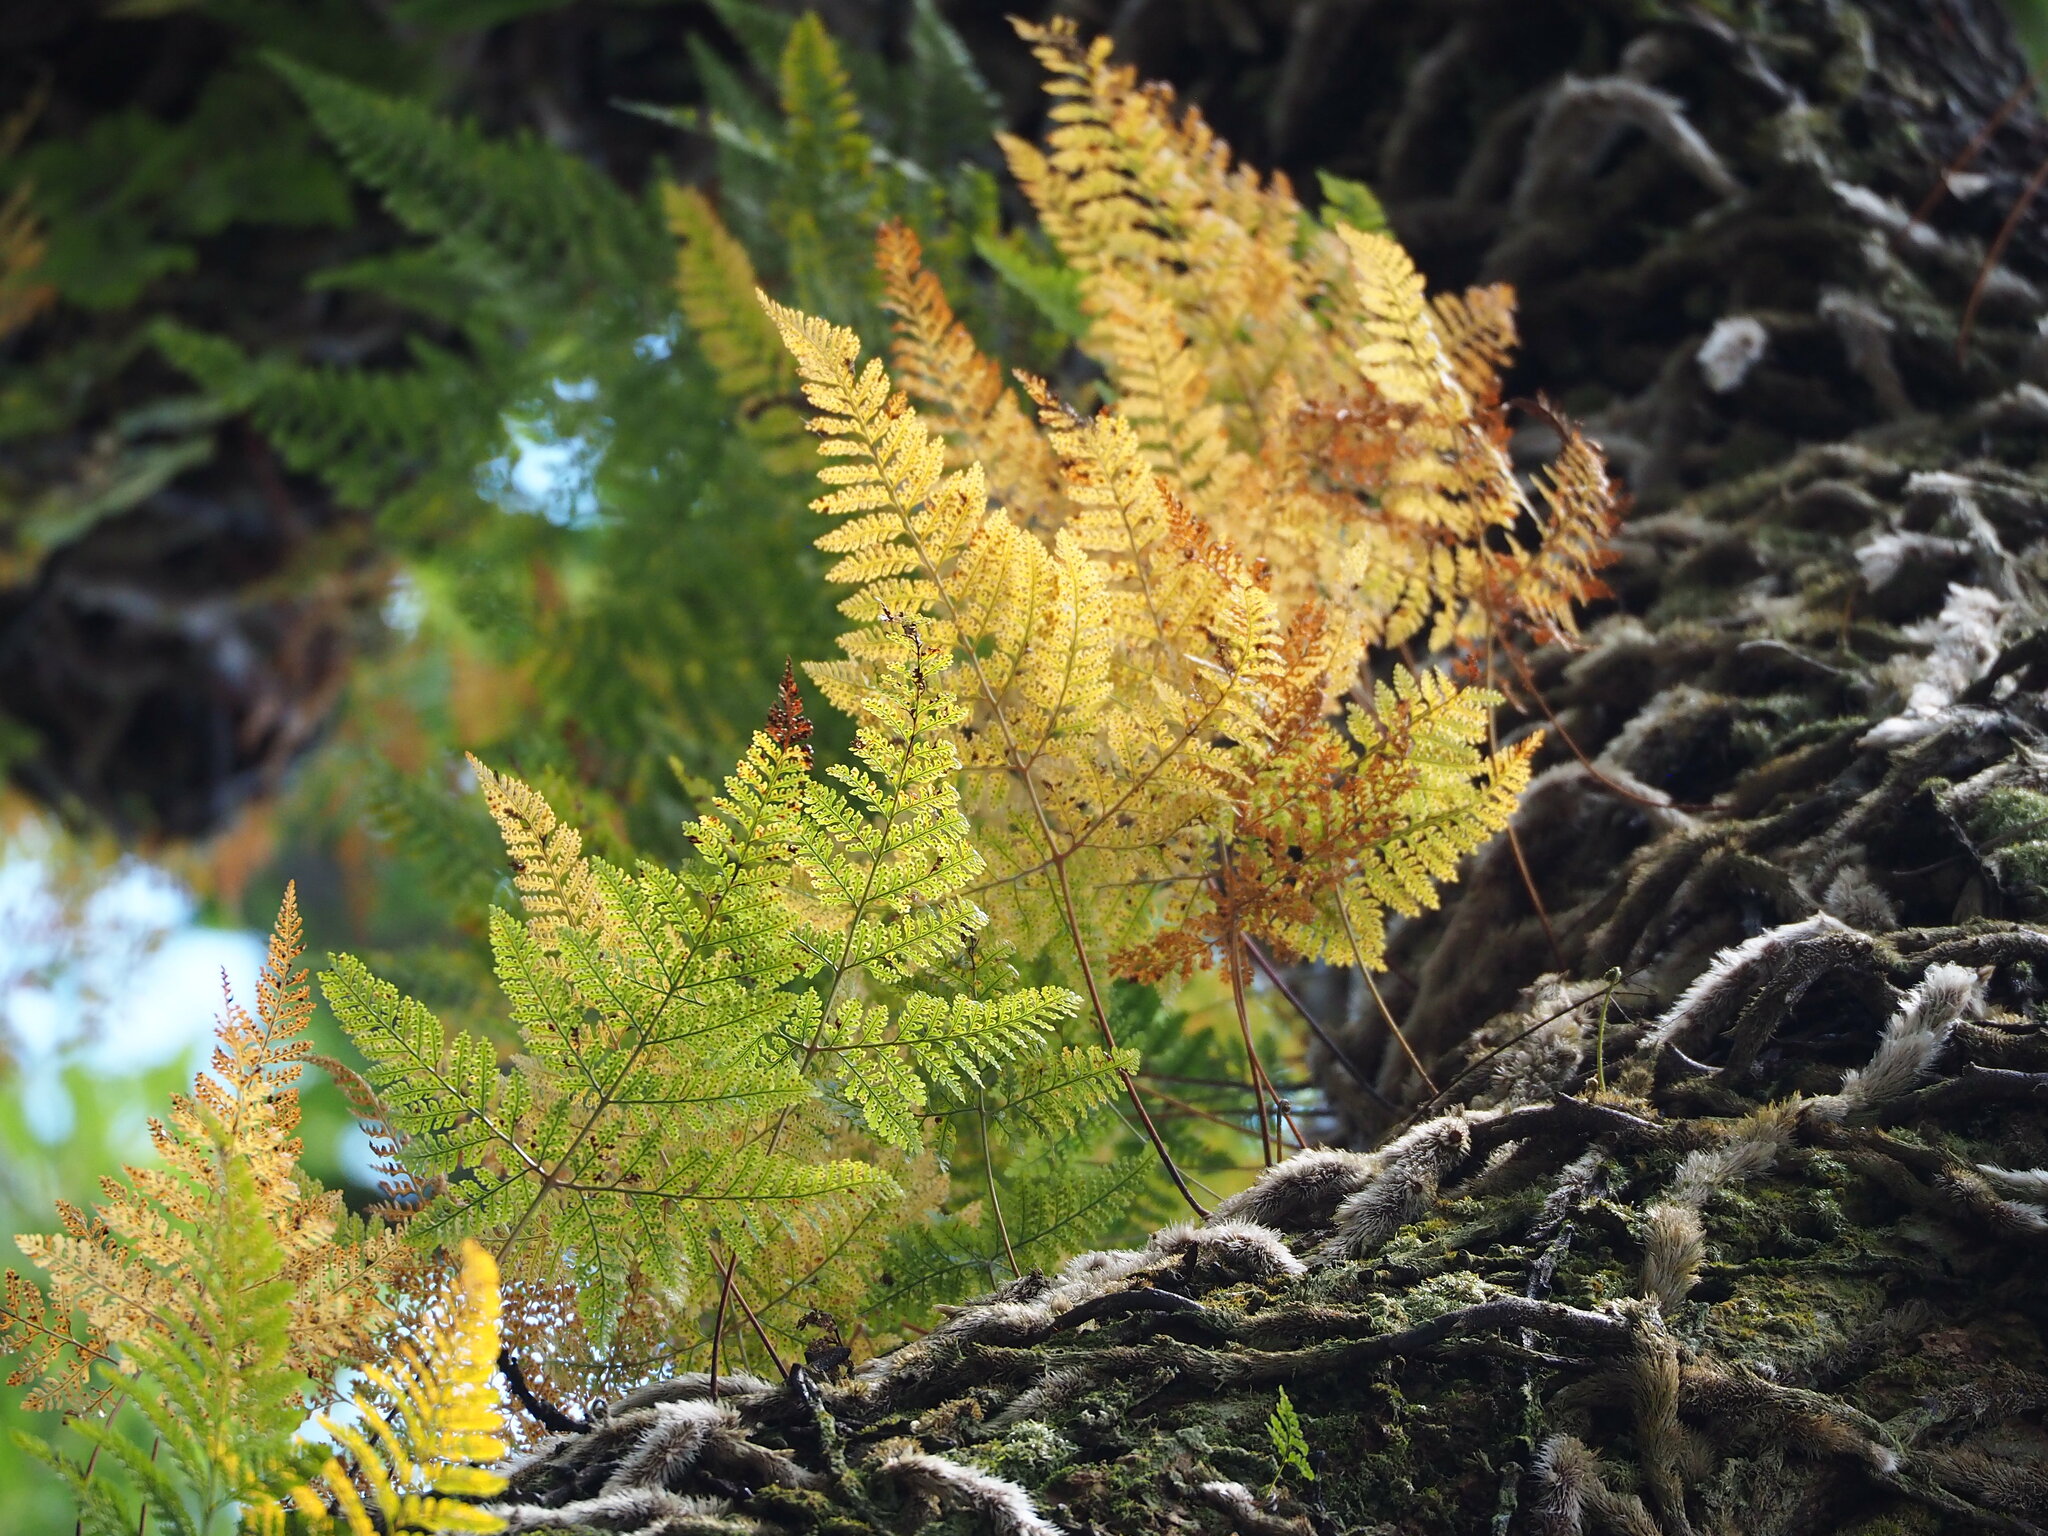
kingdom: Plantae
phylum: Tracheophyta
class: Polypodiopsida
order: Polypodiales
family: Davalliaceae
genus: Davallia
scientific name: Davallia griffithiana
